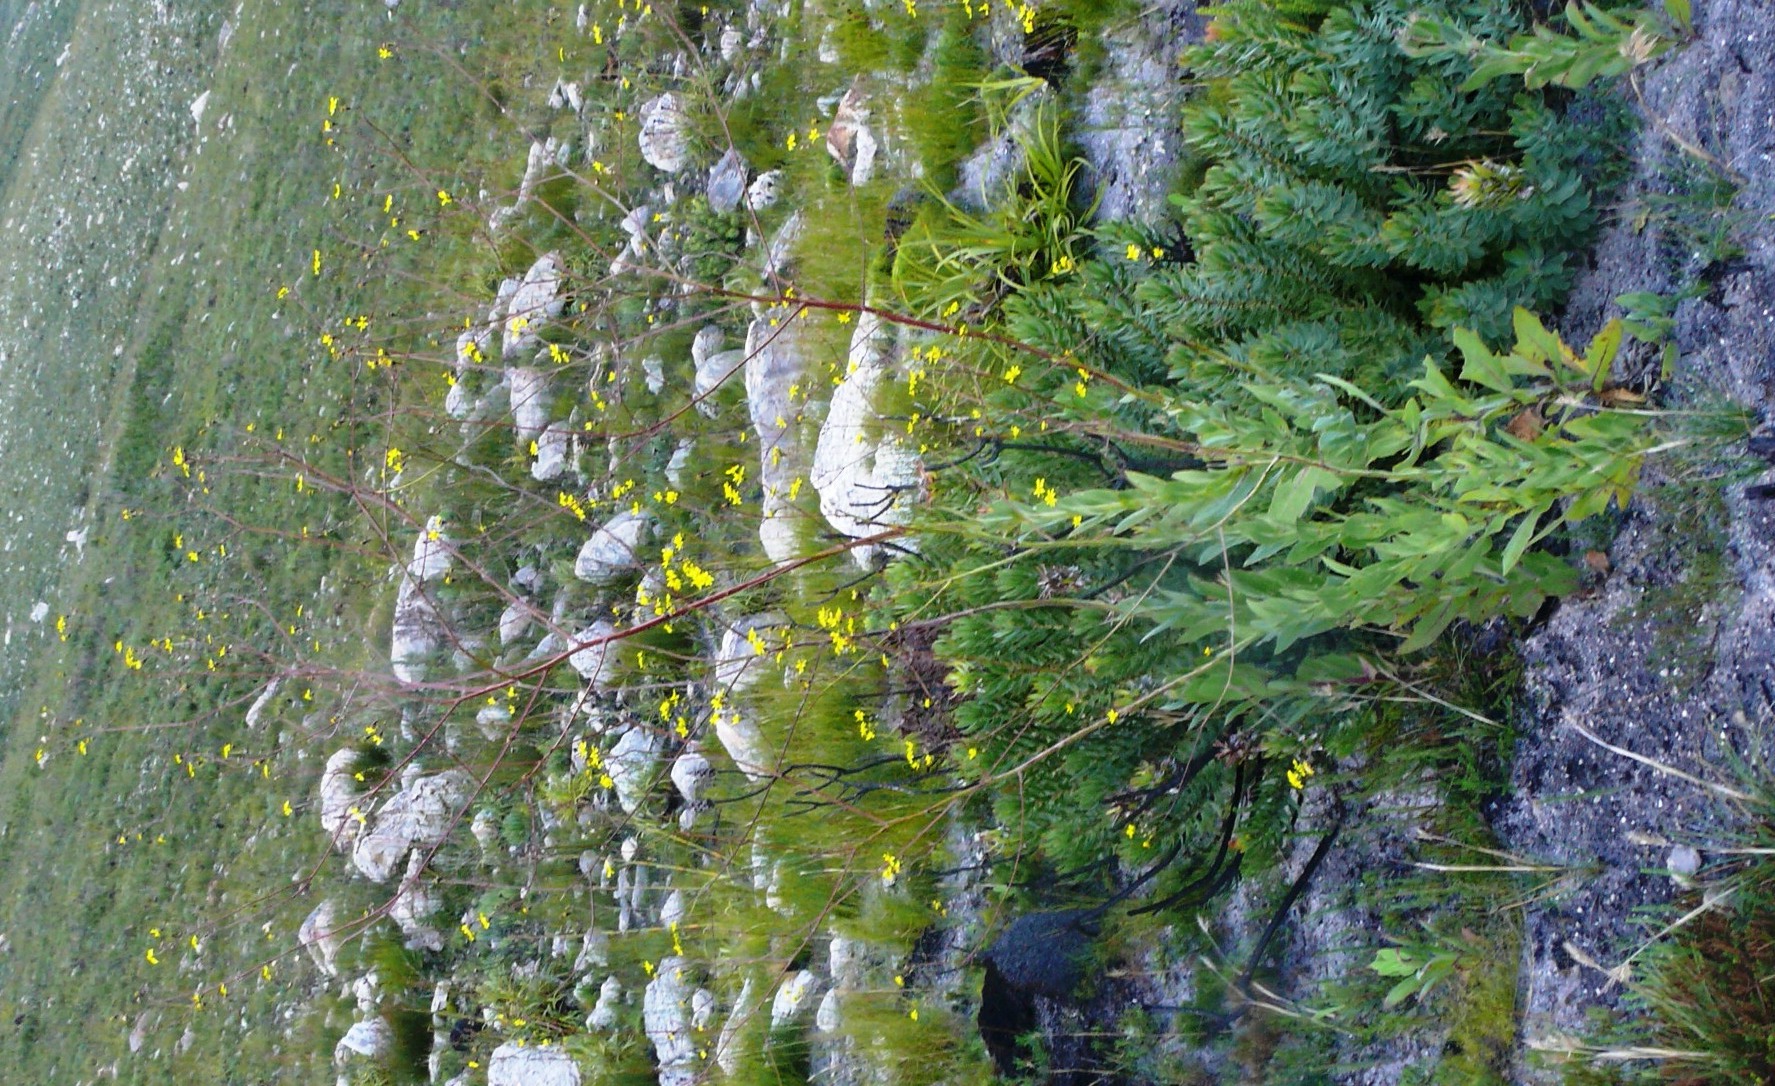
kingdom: Plantae
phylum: Tracheophyta
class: Magnoliopsida
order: Asterales
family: Asteraceae
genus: Othonna
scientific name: Othonna quinquedentata
